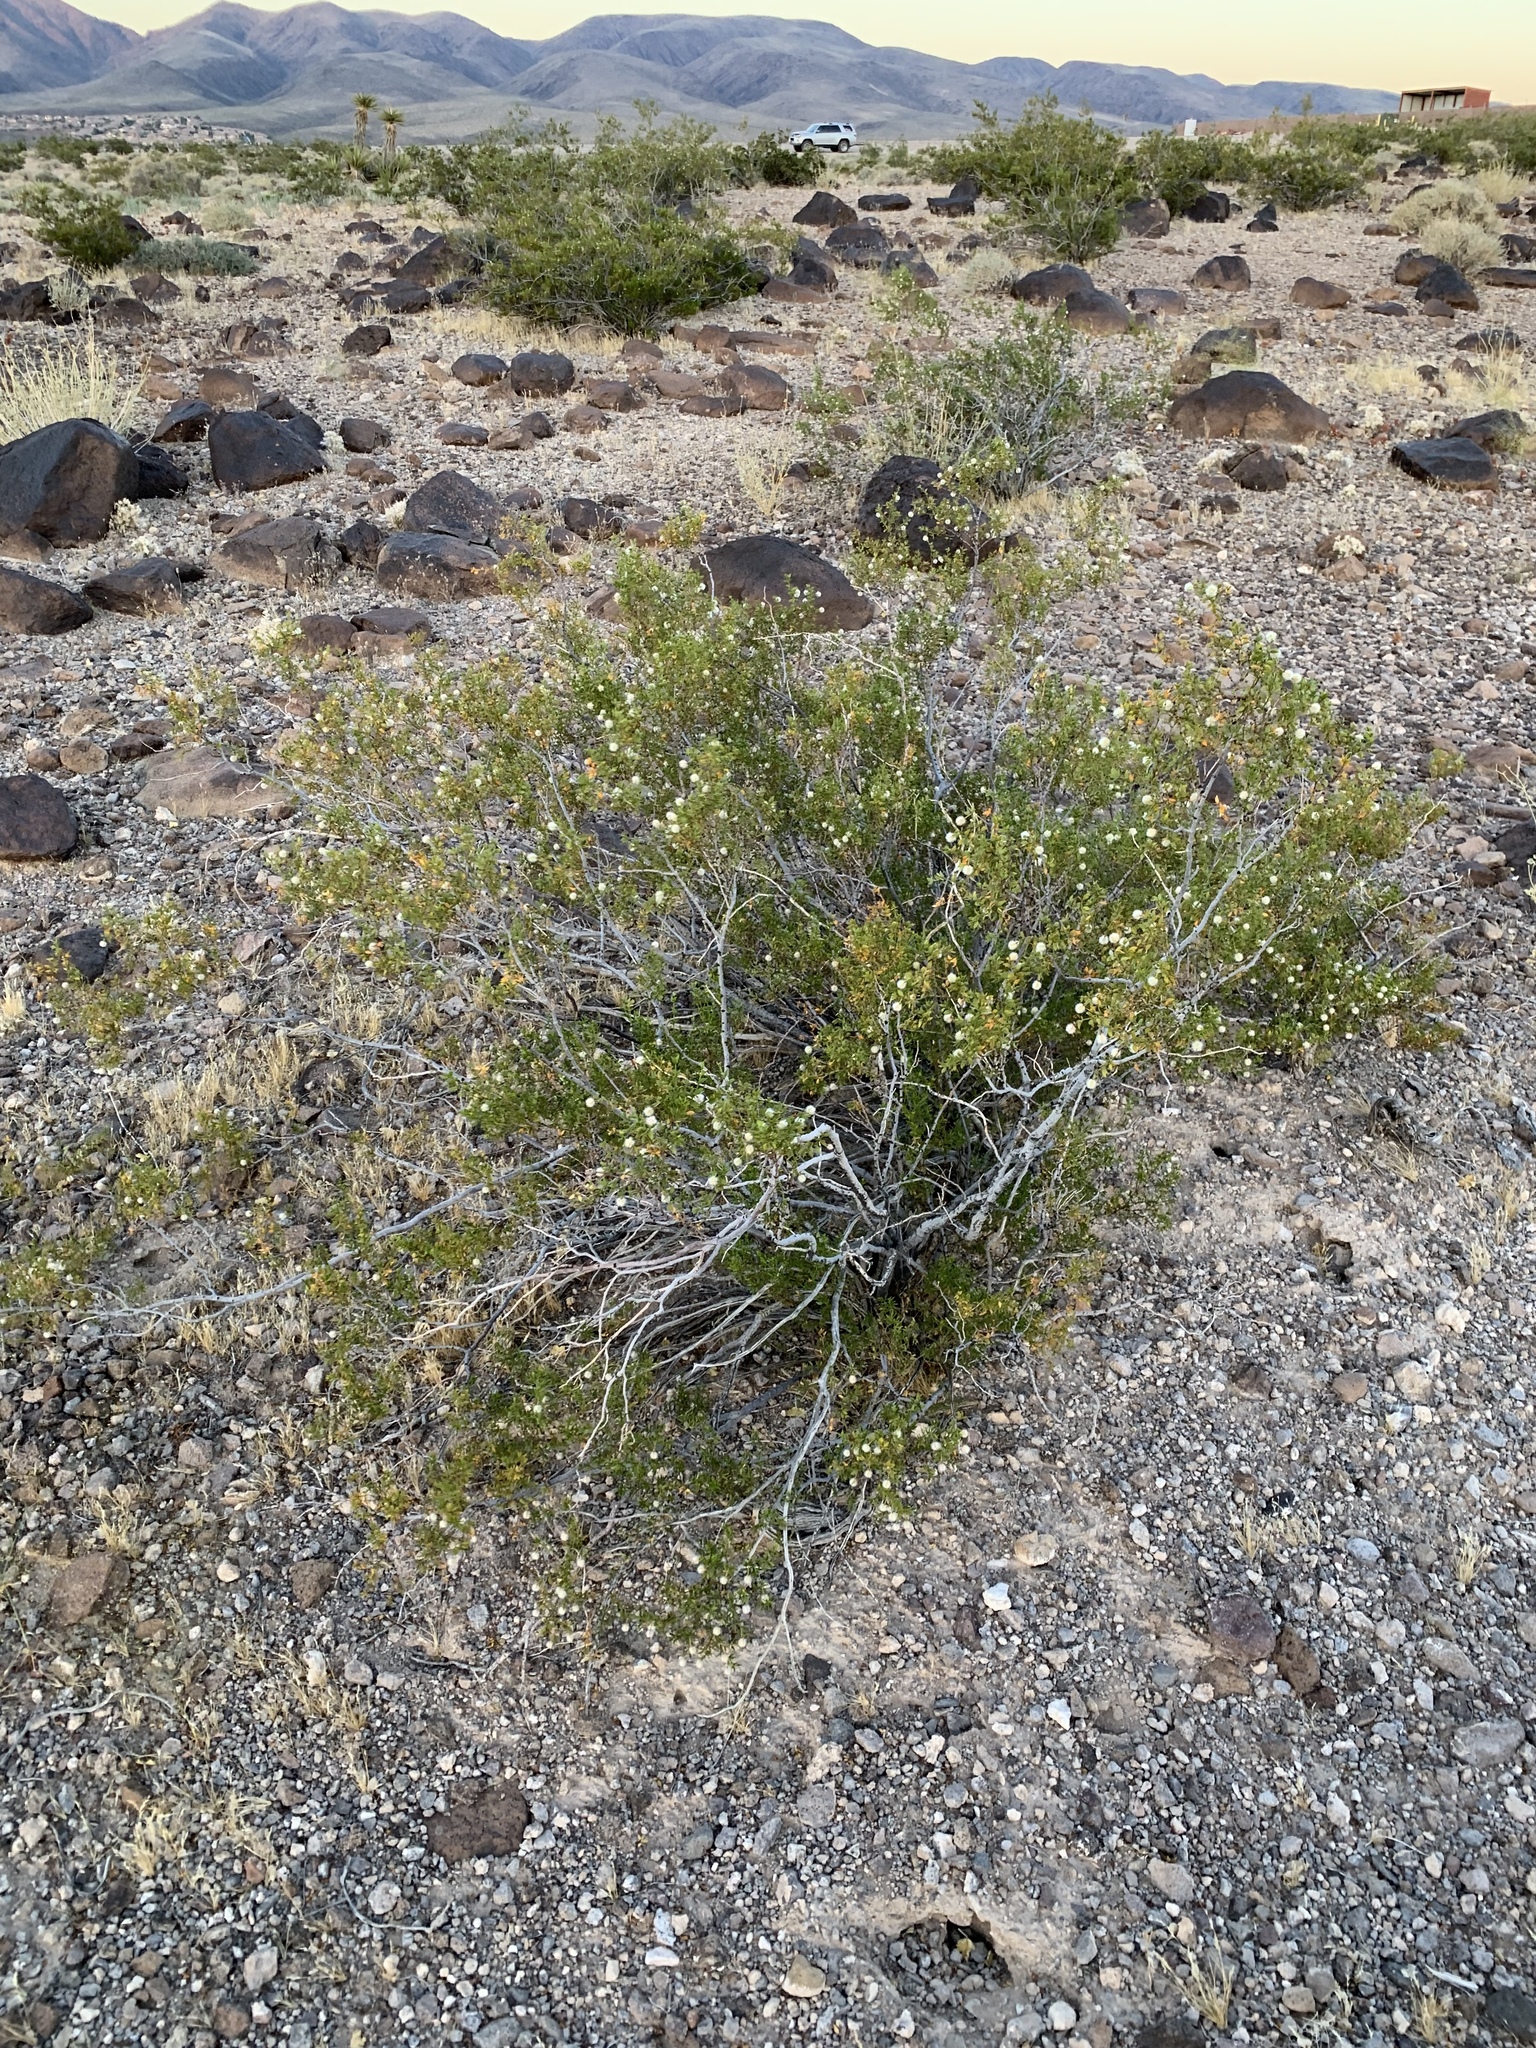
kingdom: Plantae
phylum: Tracheophyta
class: Magnoliopsida
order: Zygophyllales
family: Zygophyllaceae
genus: Larrea
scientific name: Larrea tridentata
